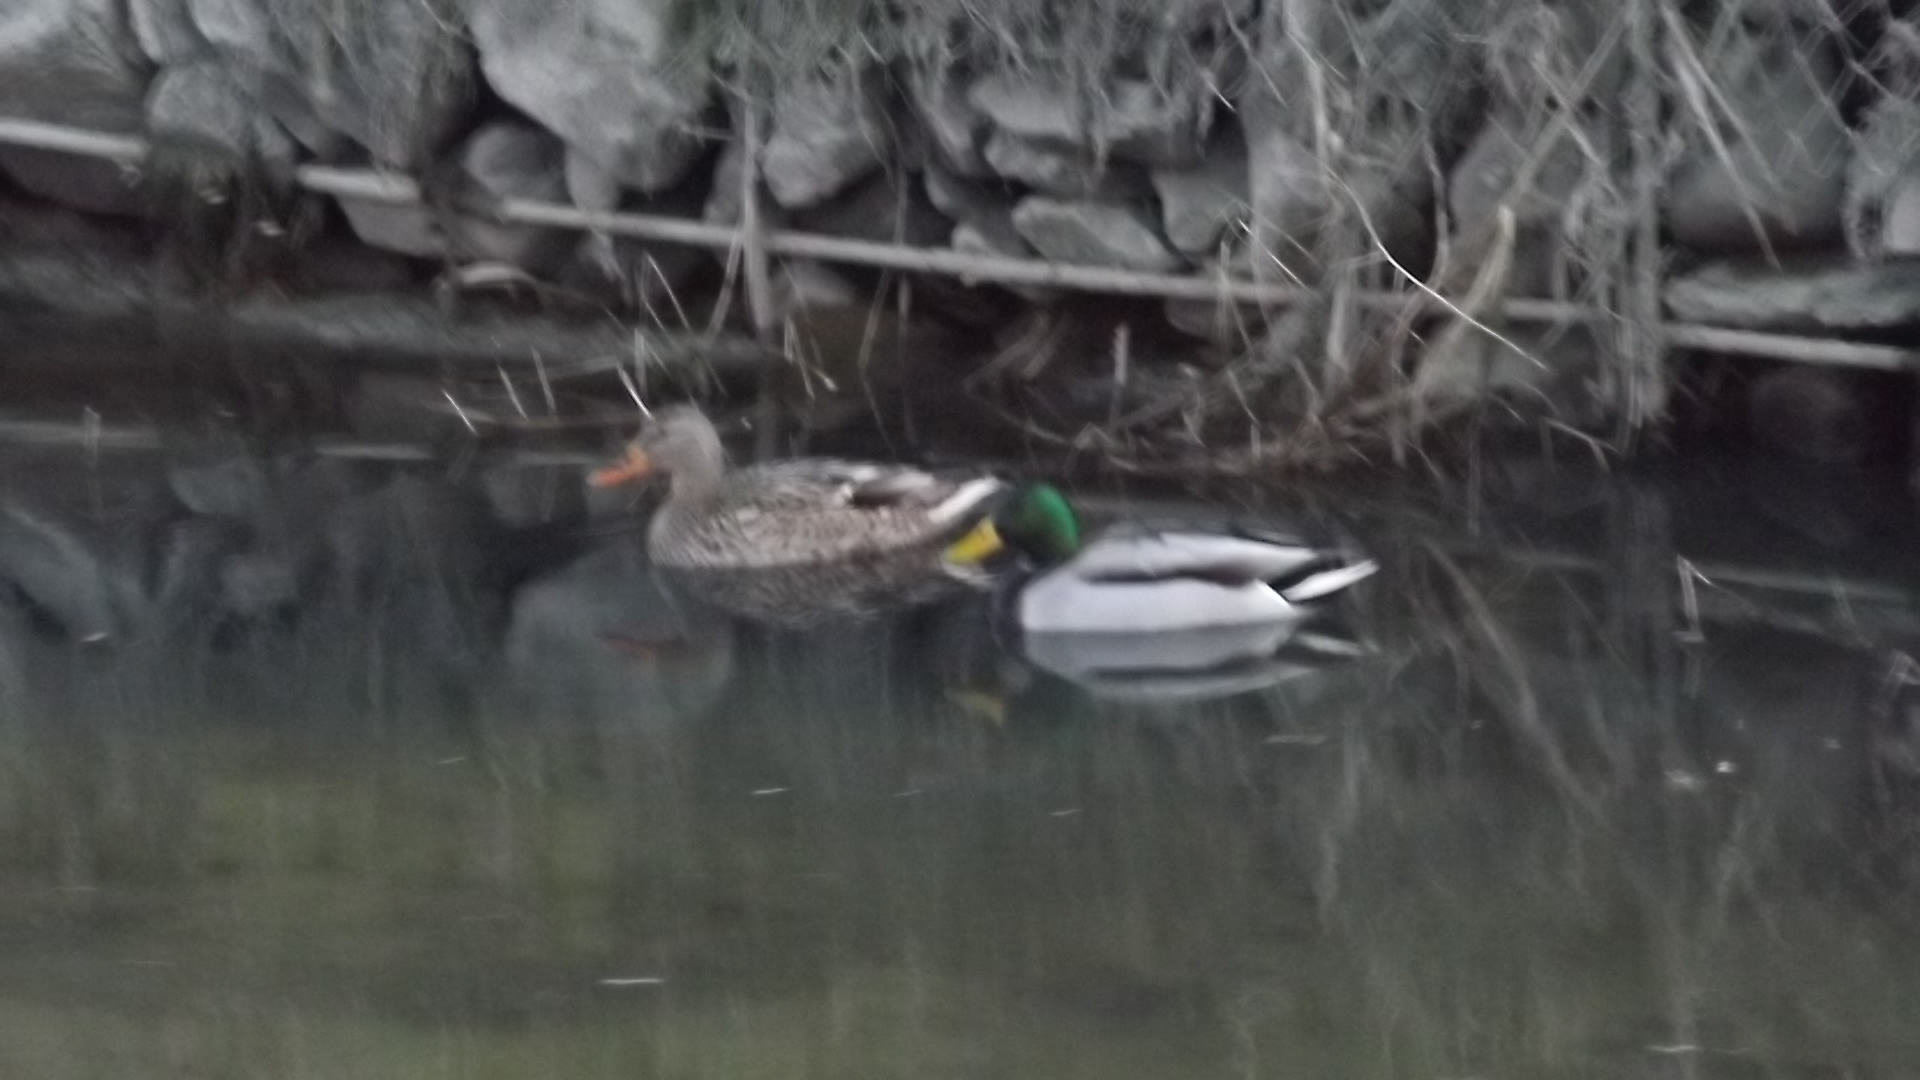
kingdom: Animalia
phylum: Chordata
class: Aves
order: Anseriformes
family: Anatidae
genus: Anas
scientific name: Anas platyrhynchos
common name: Mallard
